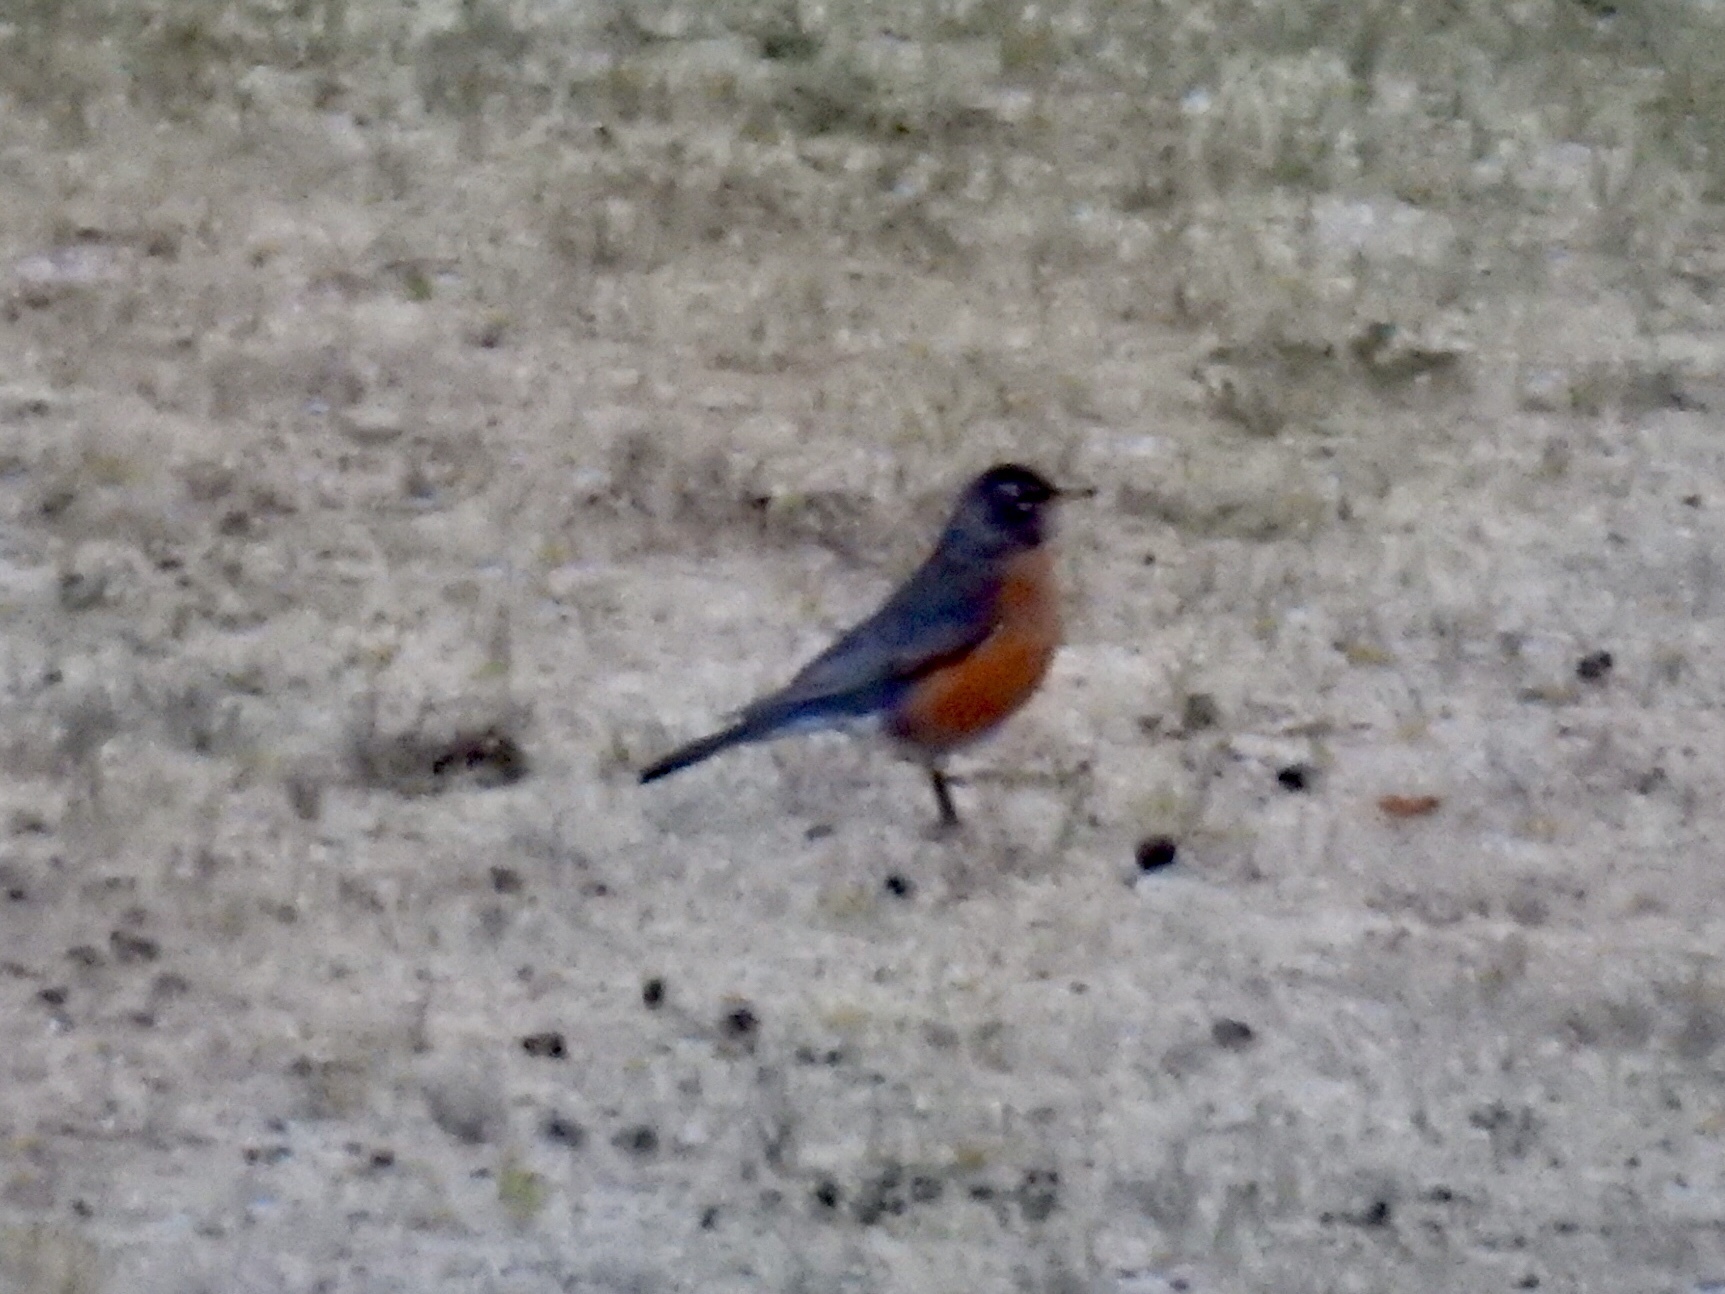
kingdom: Animalia
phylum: Chordata
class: Aves
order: Passeriformes
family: Turdidae
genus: Turdus
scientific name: Turdus migratorius
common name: American robin
